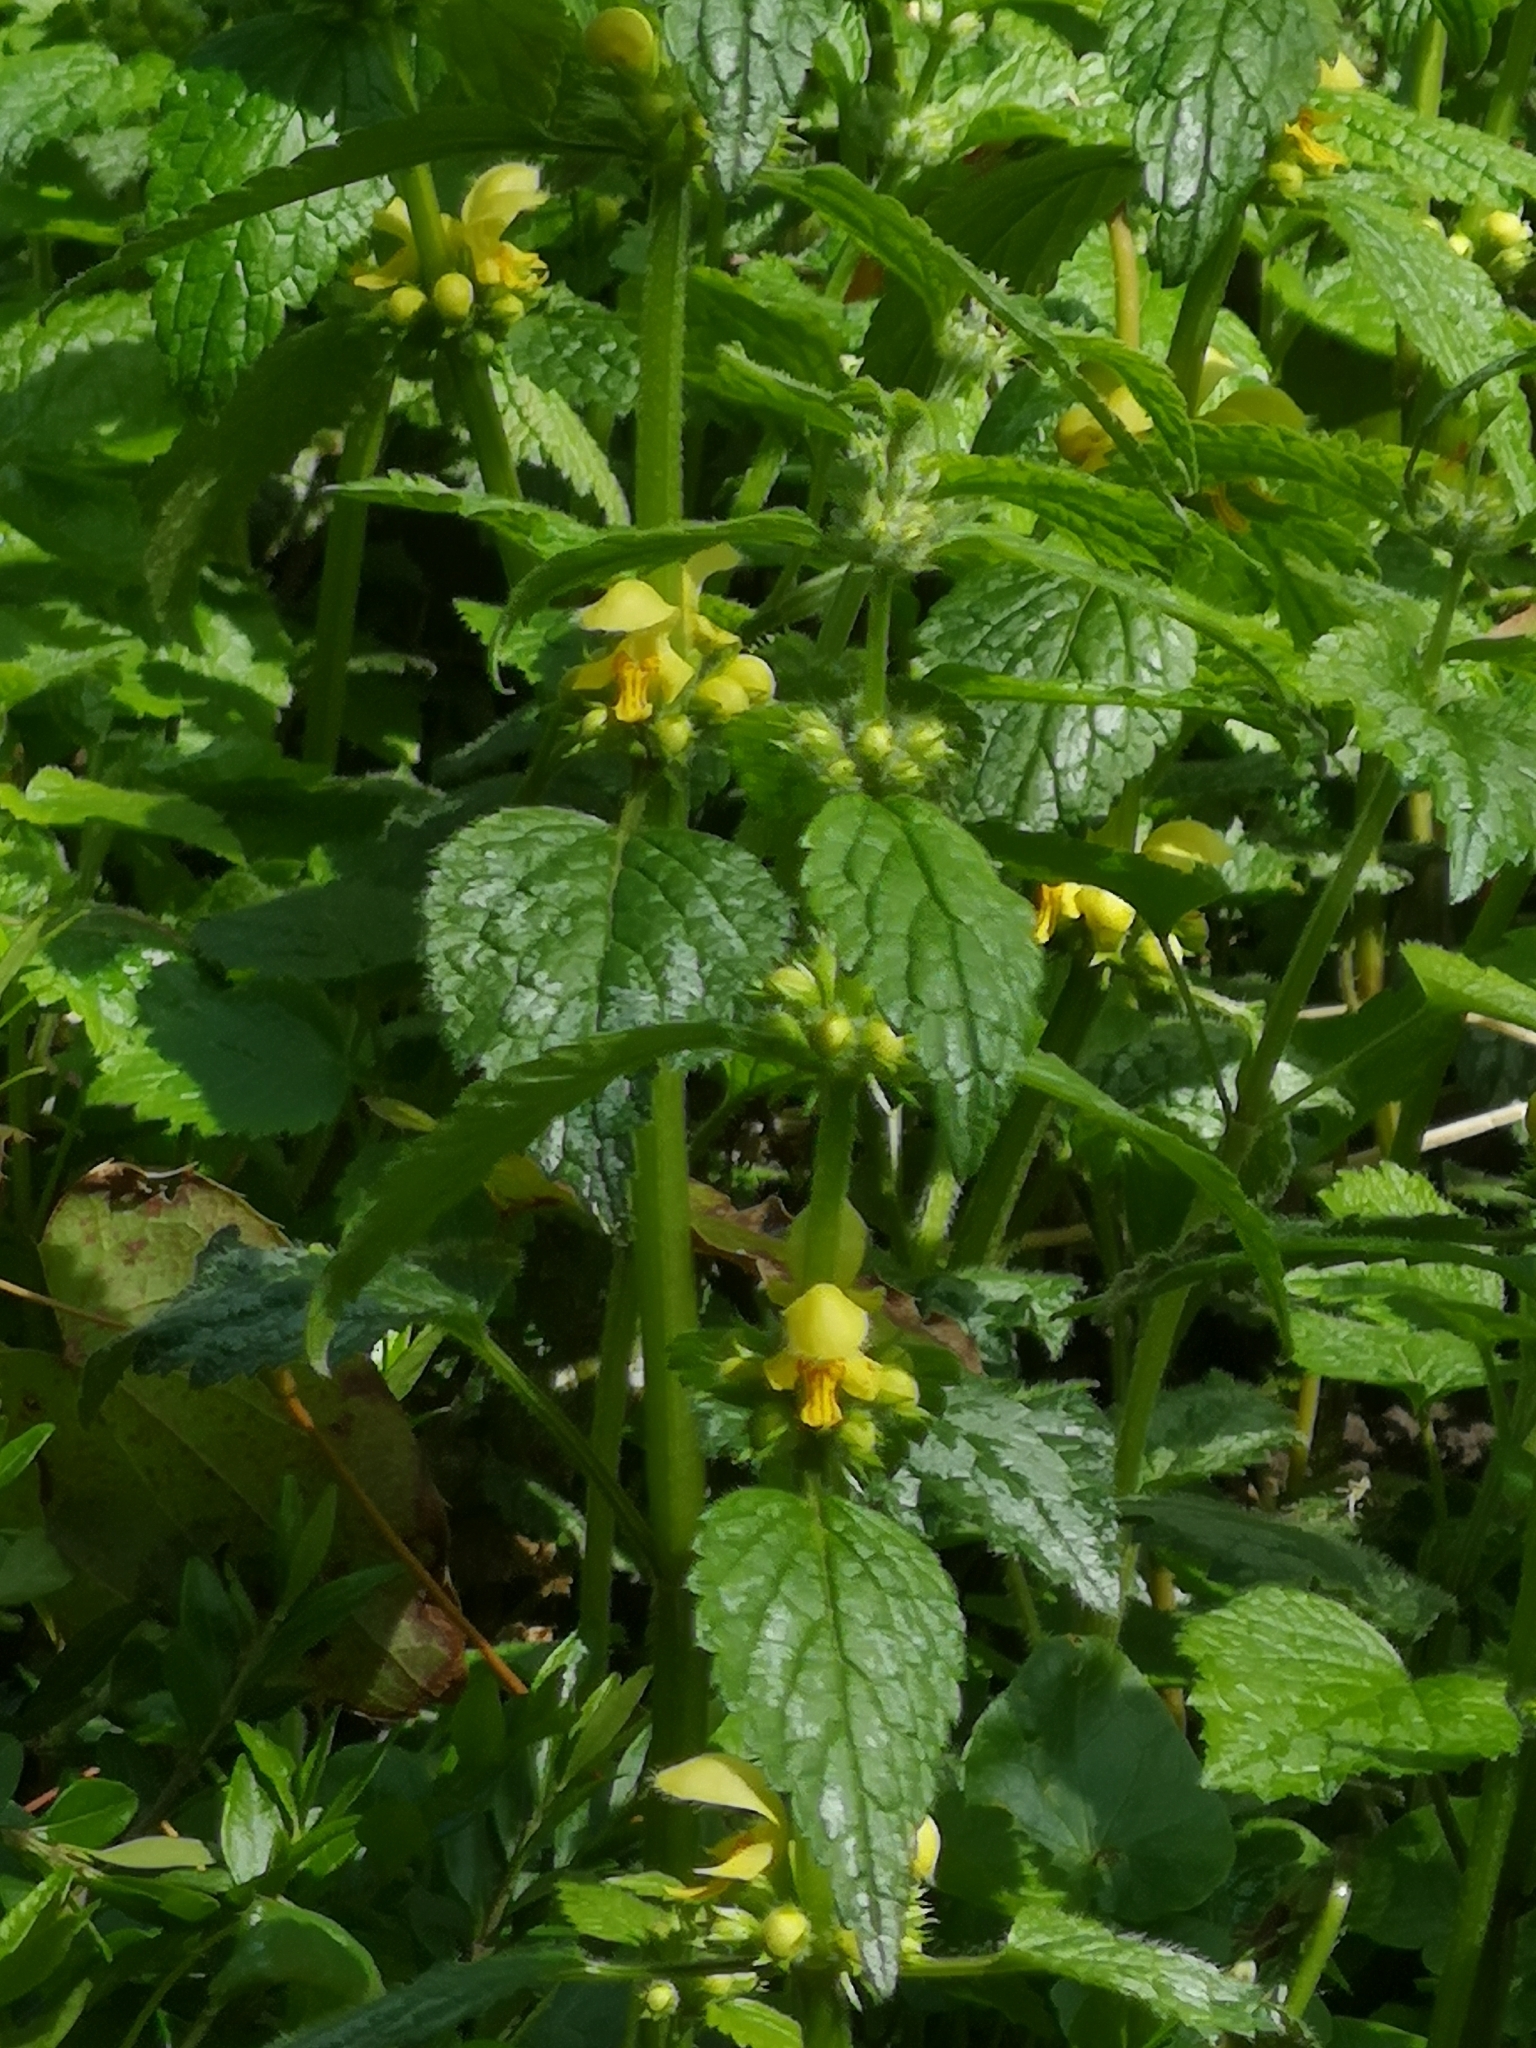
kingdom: Plantae
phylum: Tracheophyta
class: Magnoliopsida
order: Lamiales
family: Lamiaceae
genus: Lamium
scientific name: Lamium galeobdolon
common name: Yellow archangel
